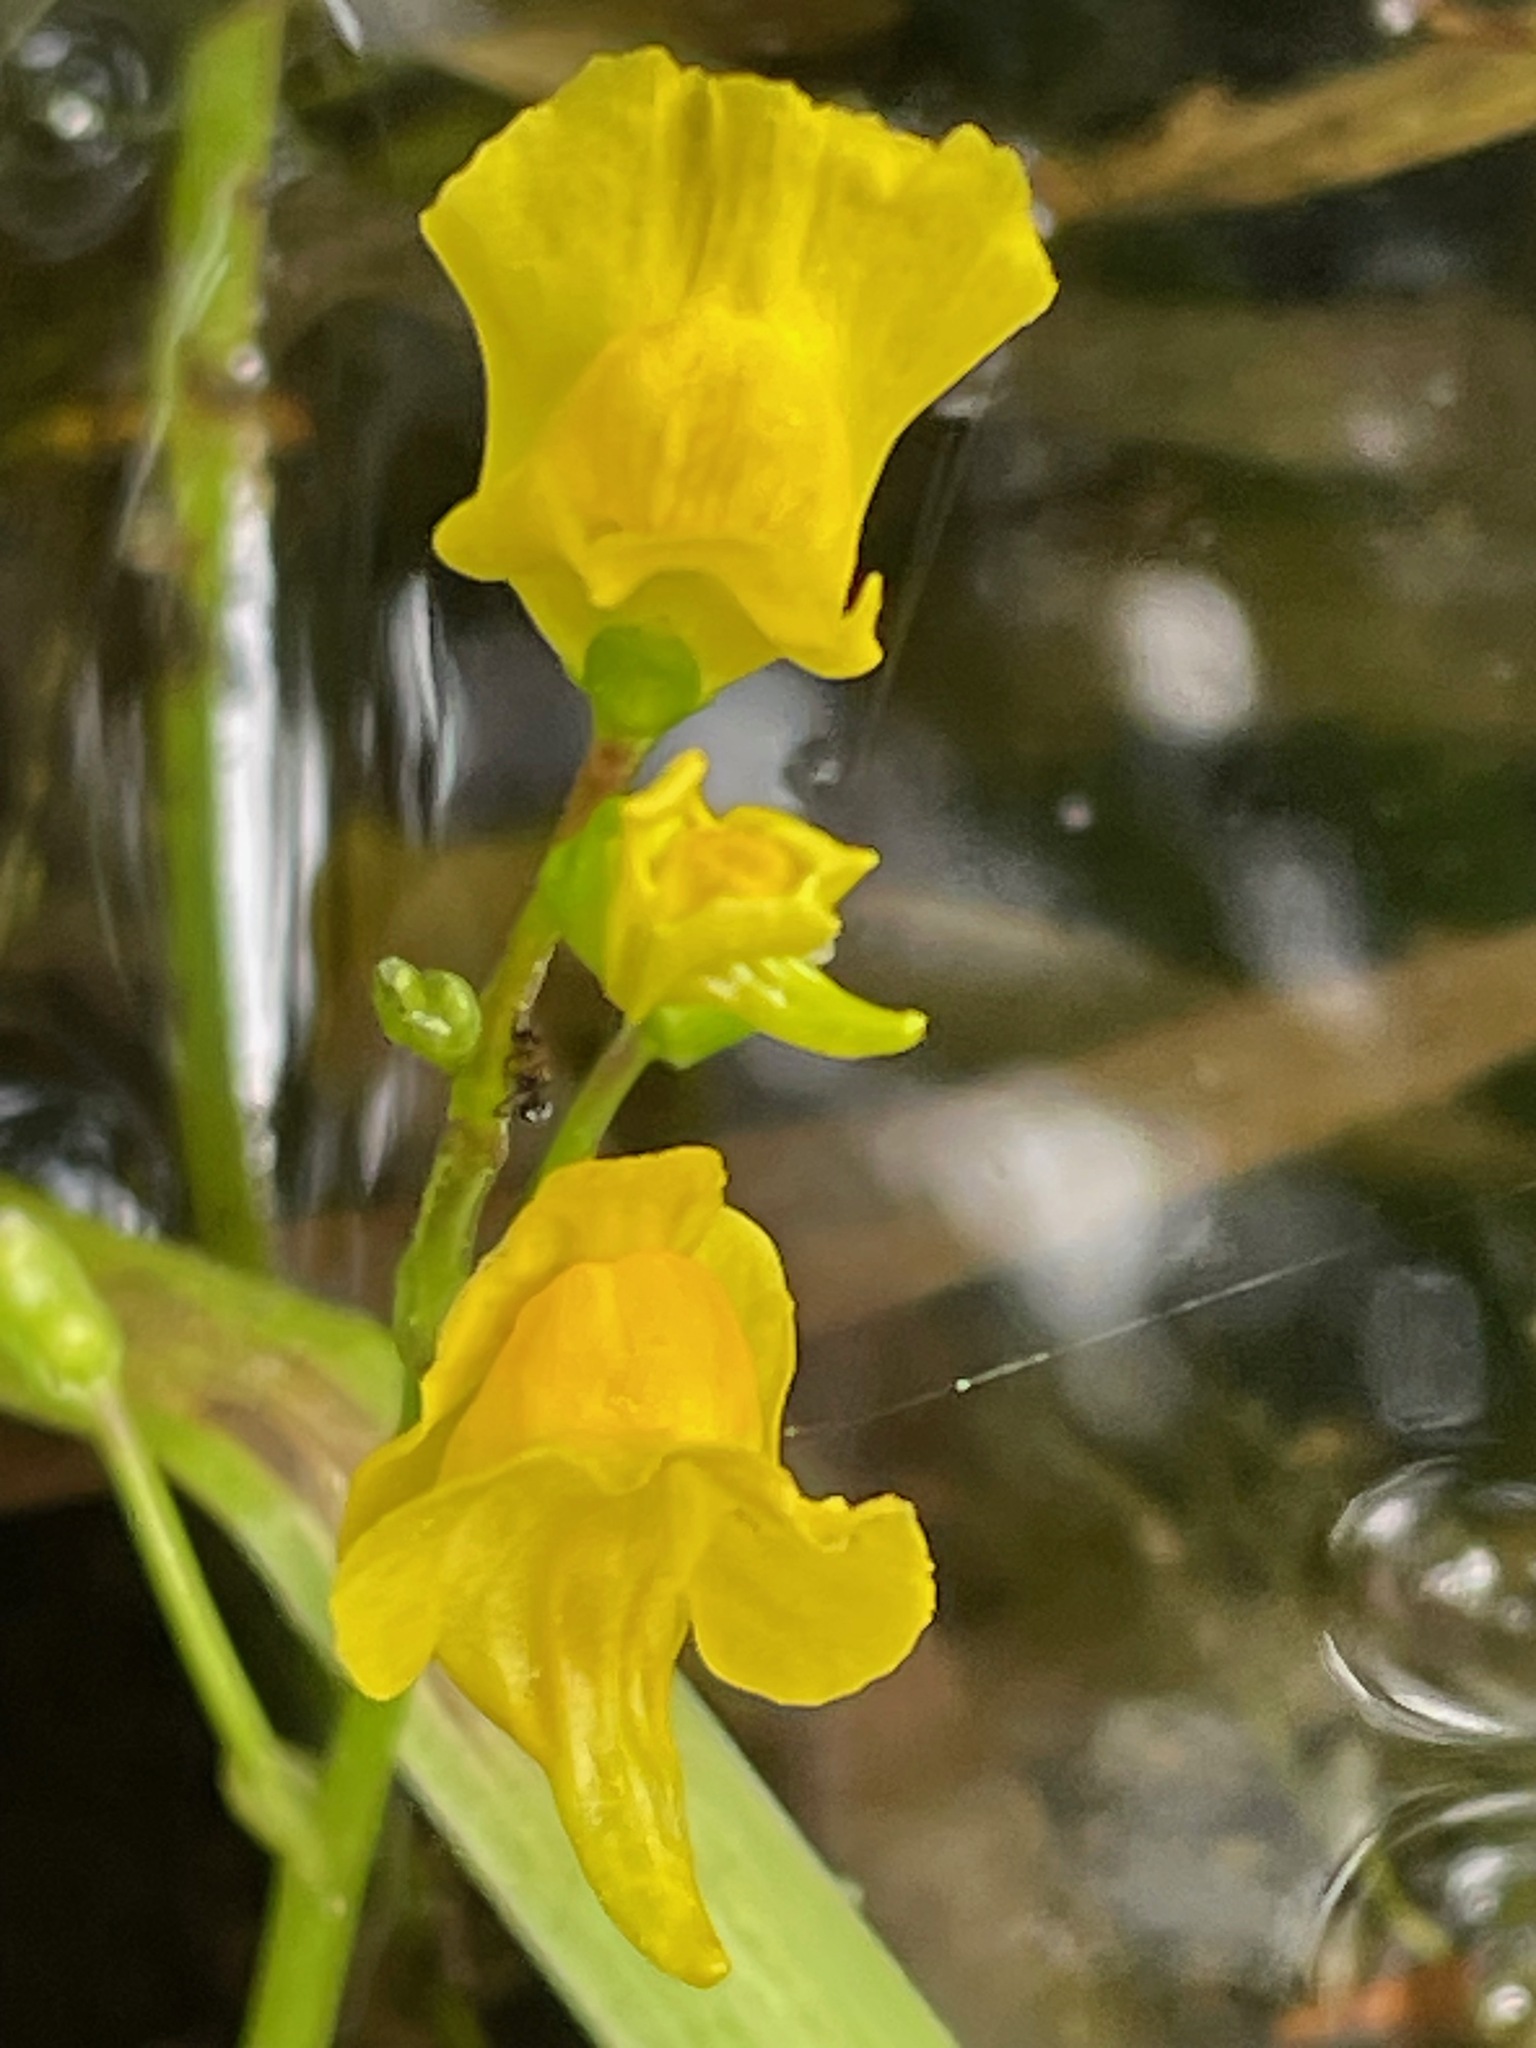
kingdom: Plantae
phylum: Tracheophyta
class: Magnoliopsida
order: Lamiales
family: Lentibulariaceae
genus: Utricularia
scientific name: Utricularia macrorhiza
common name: Common bladderwort
